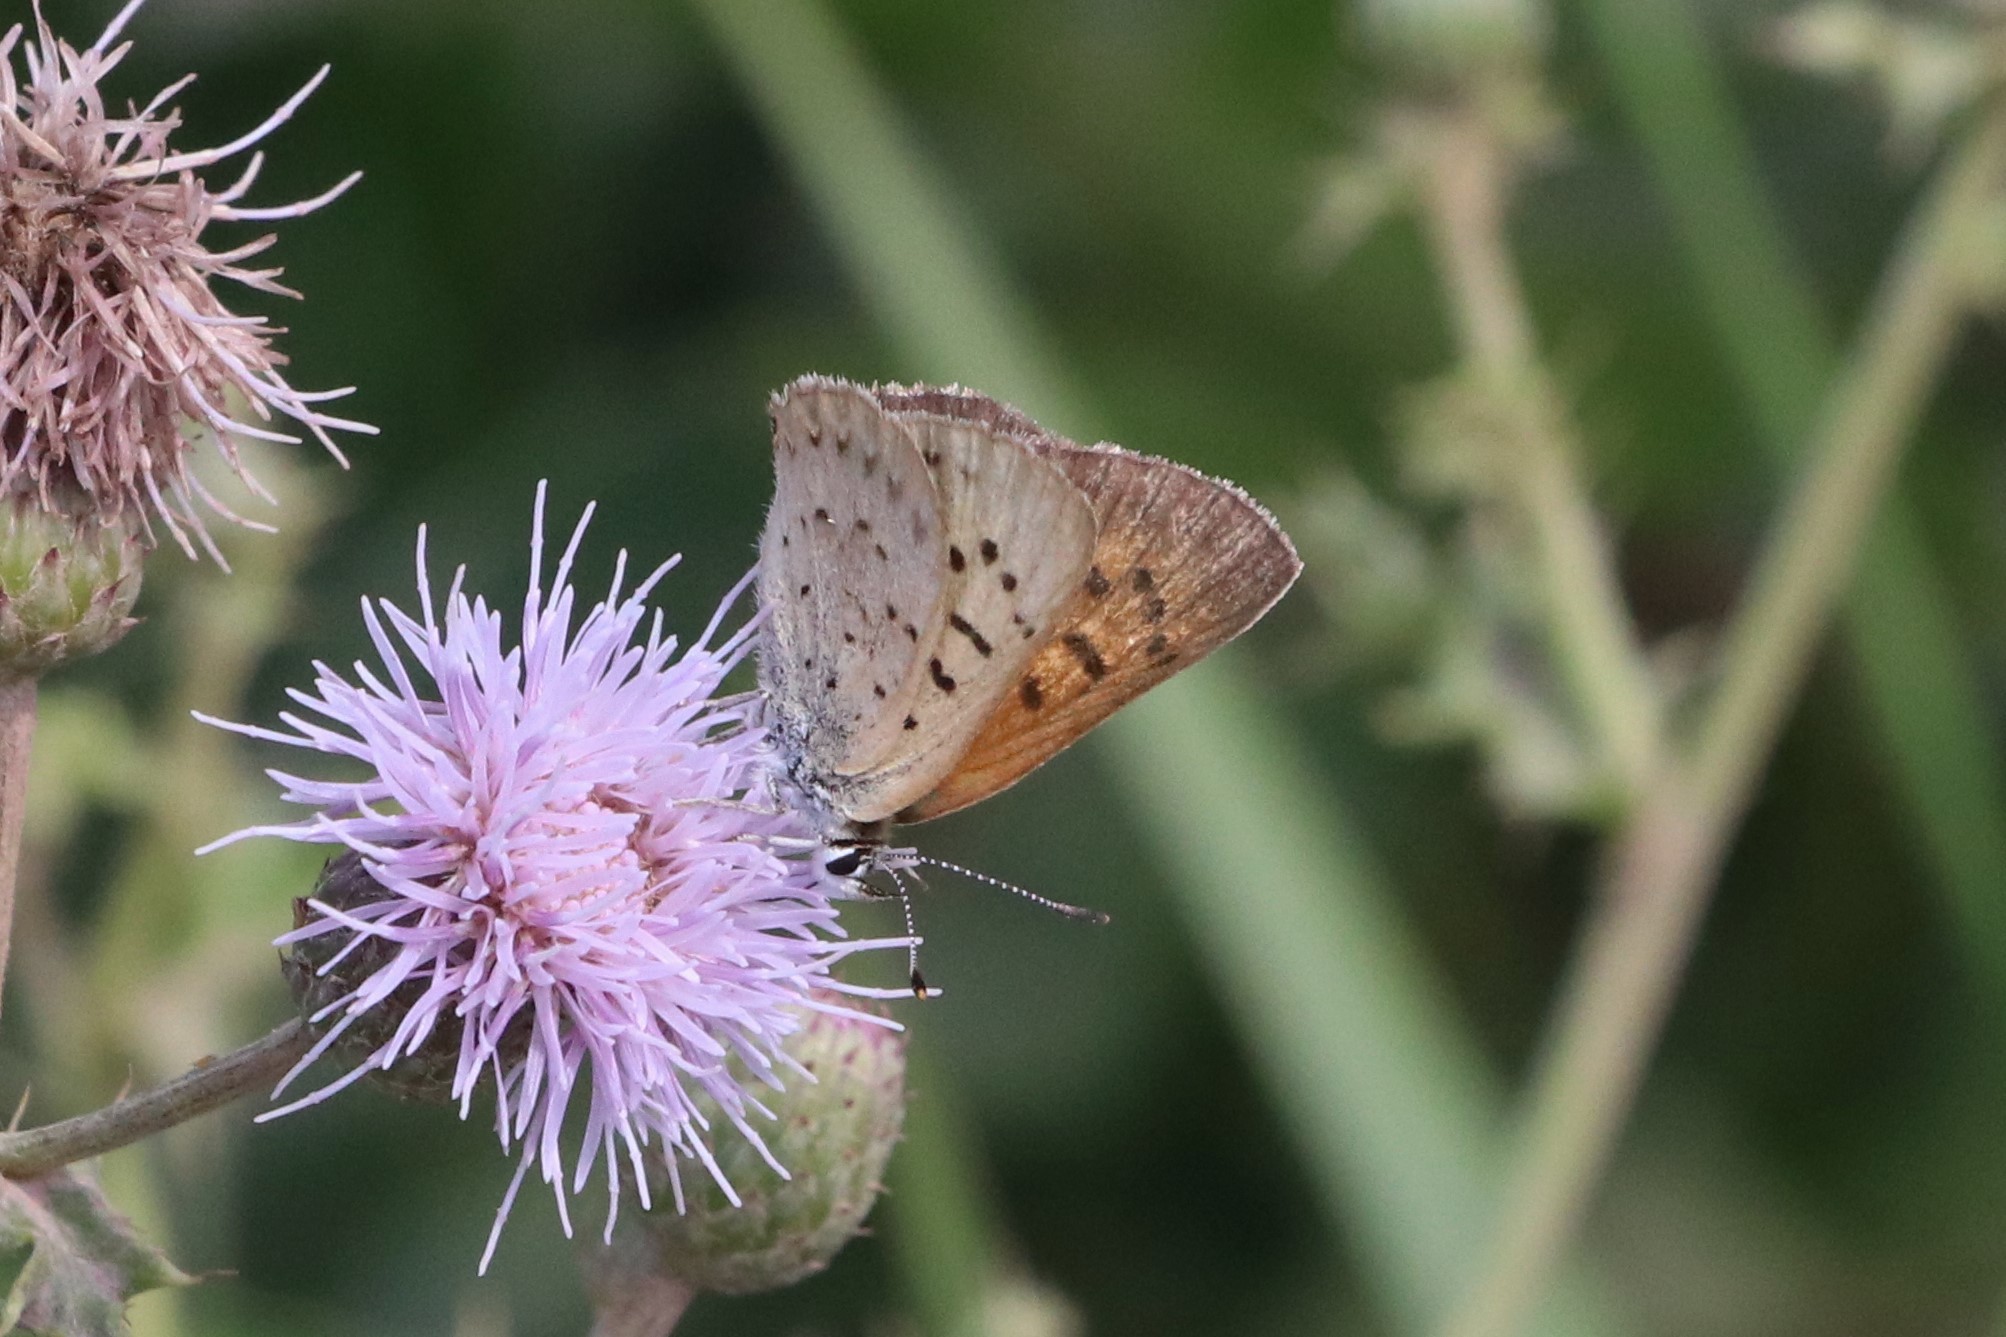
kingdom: Animalia
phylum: Arthropoda
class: Insecta
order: Lepidoptera
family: Lycaenidae
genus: Tharsalea
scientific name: Tharsalea dospassosi
